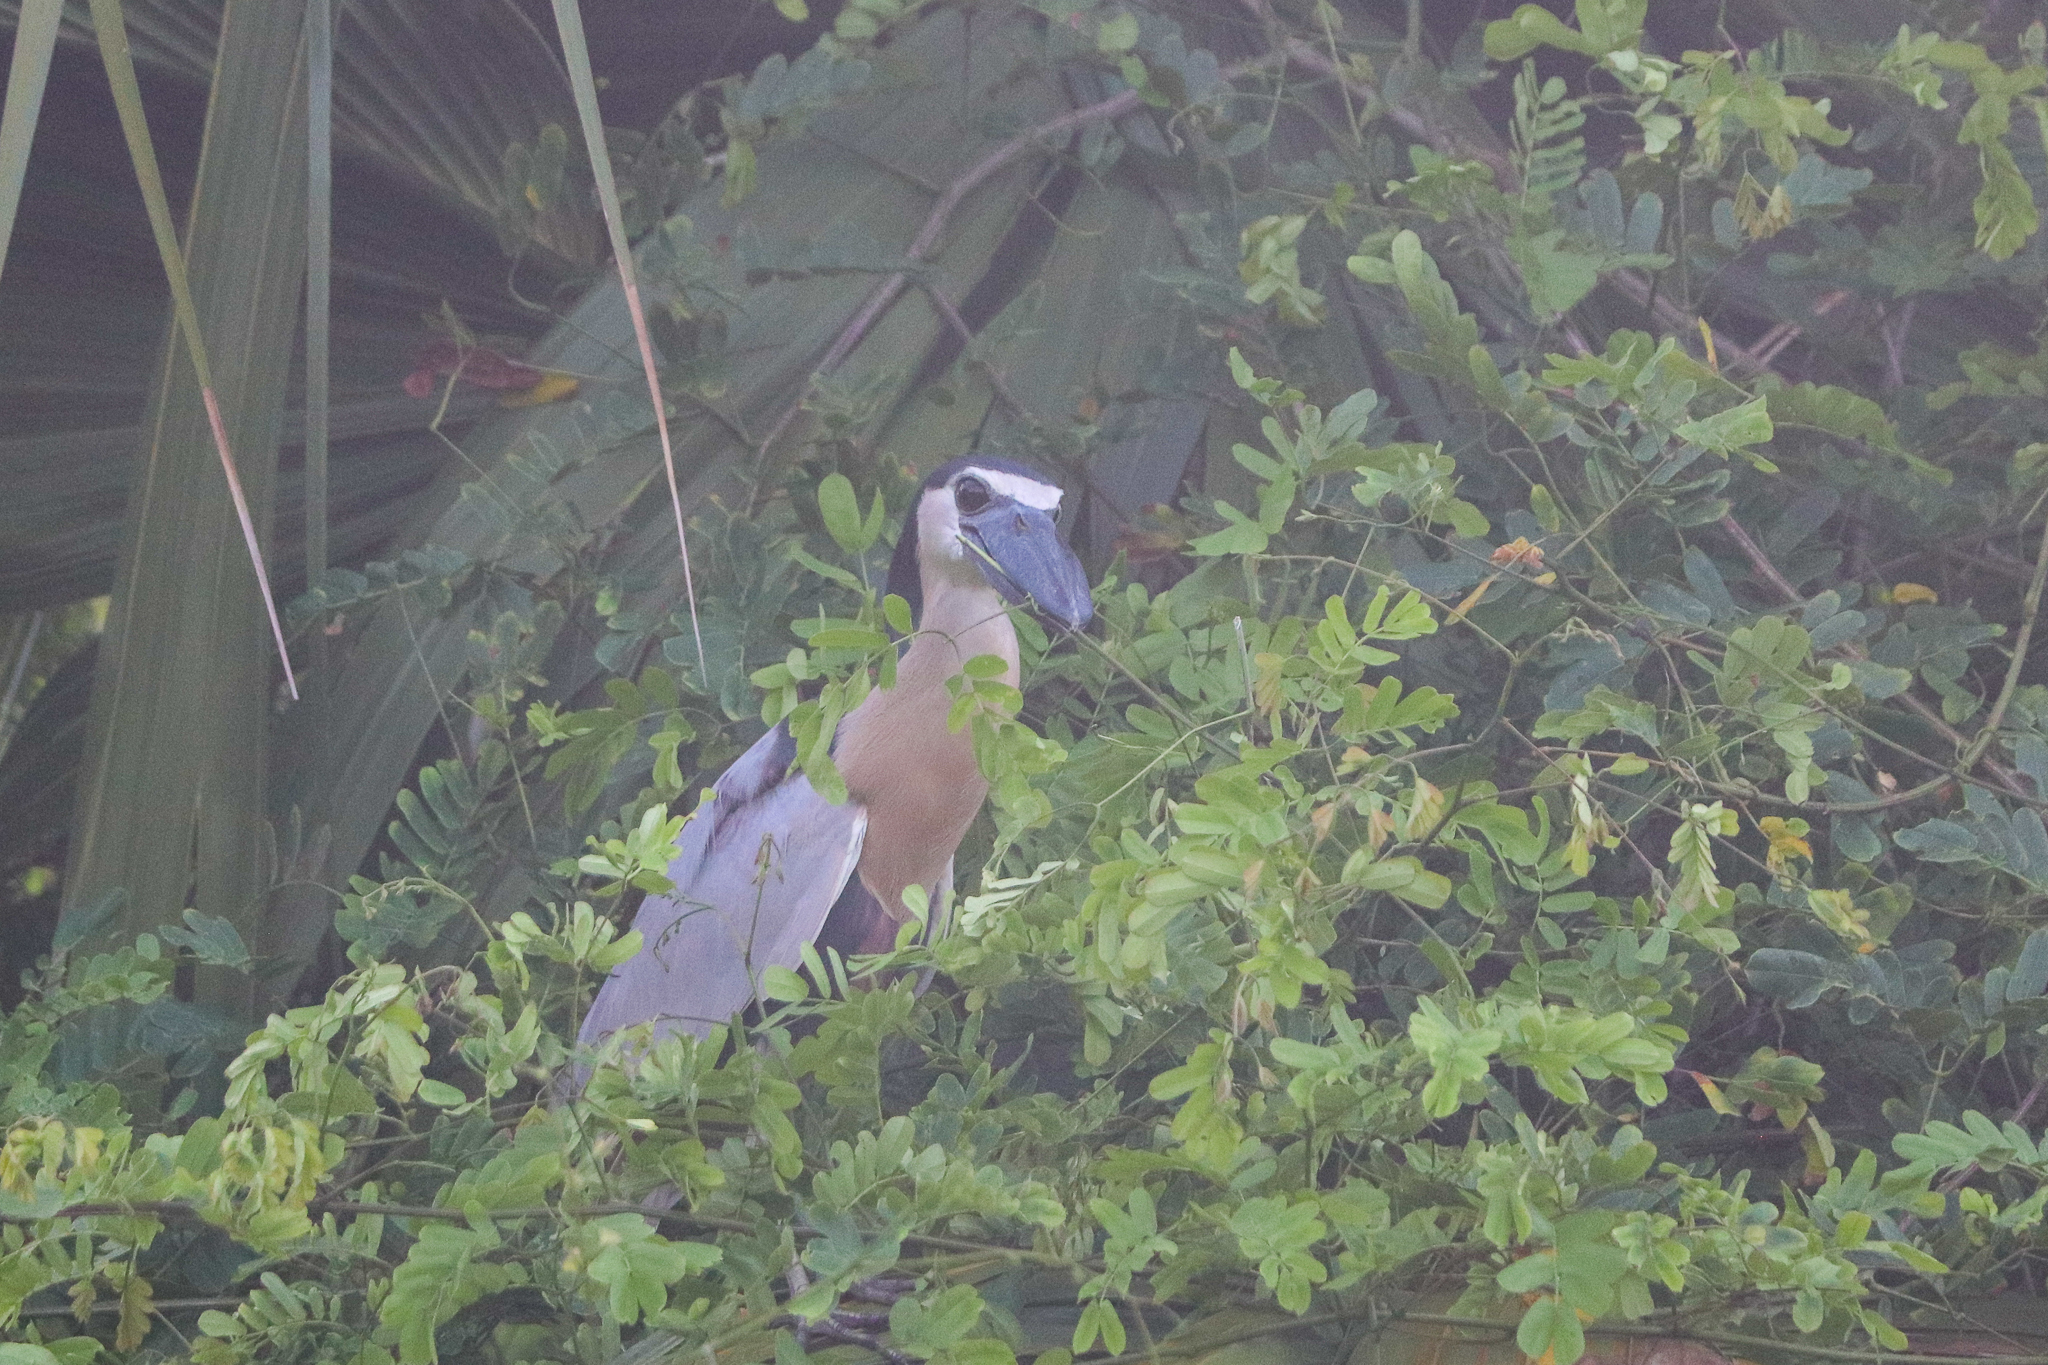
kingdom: Animalia
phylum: Chordata
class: Aves
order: Pelecaniformes
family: Ardeidae
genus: Cochlearius
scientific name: Cochlearius cochlearius
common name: Boat-billed heron
